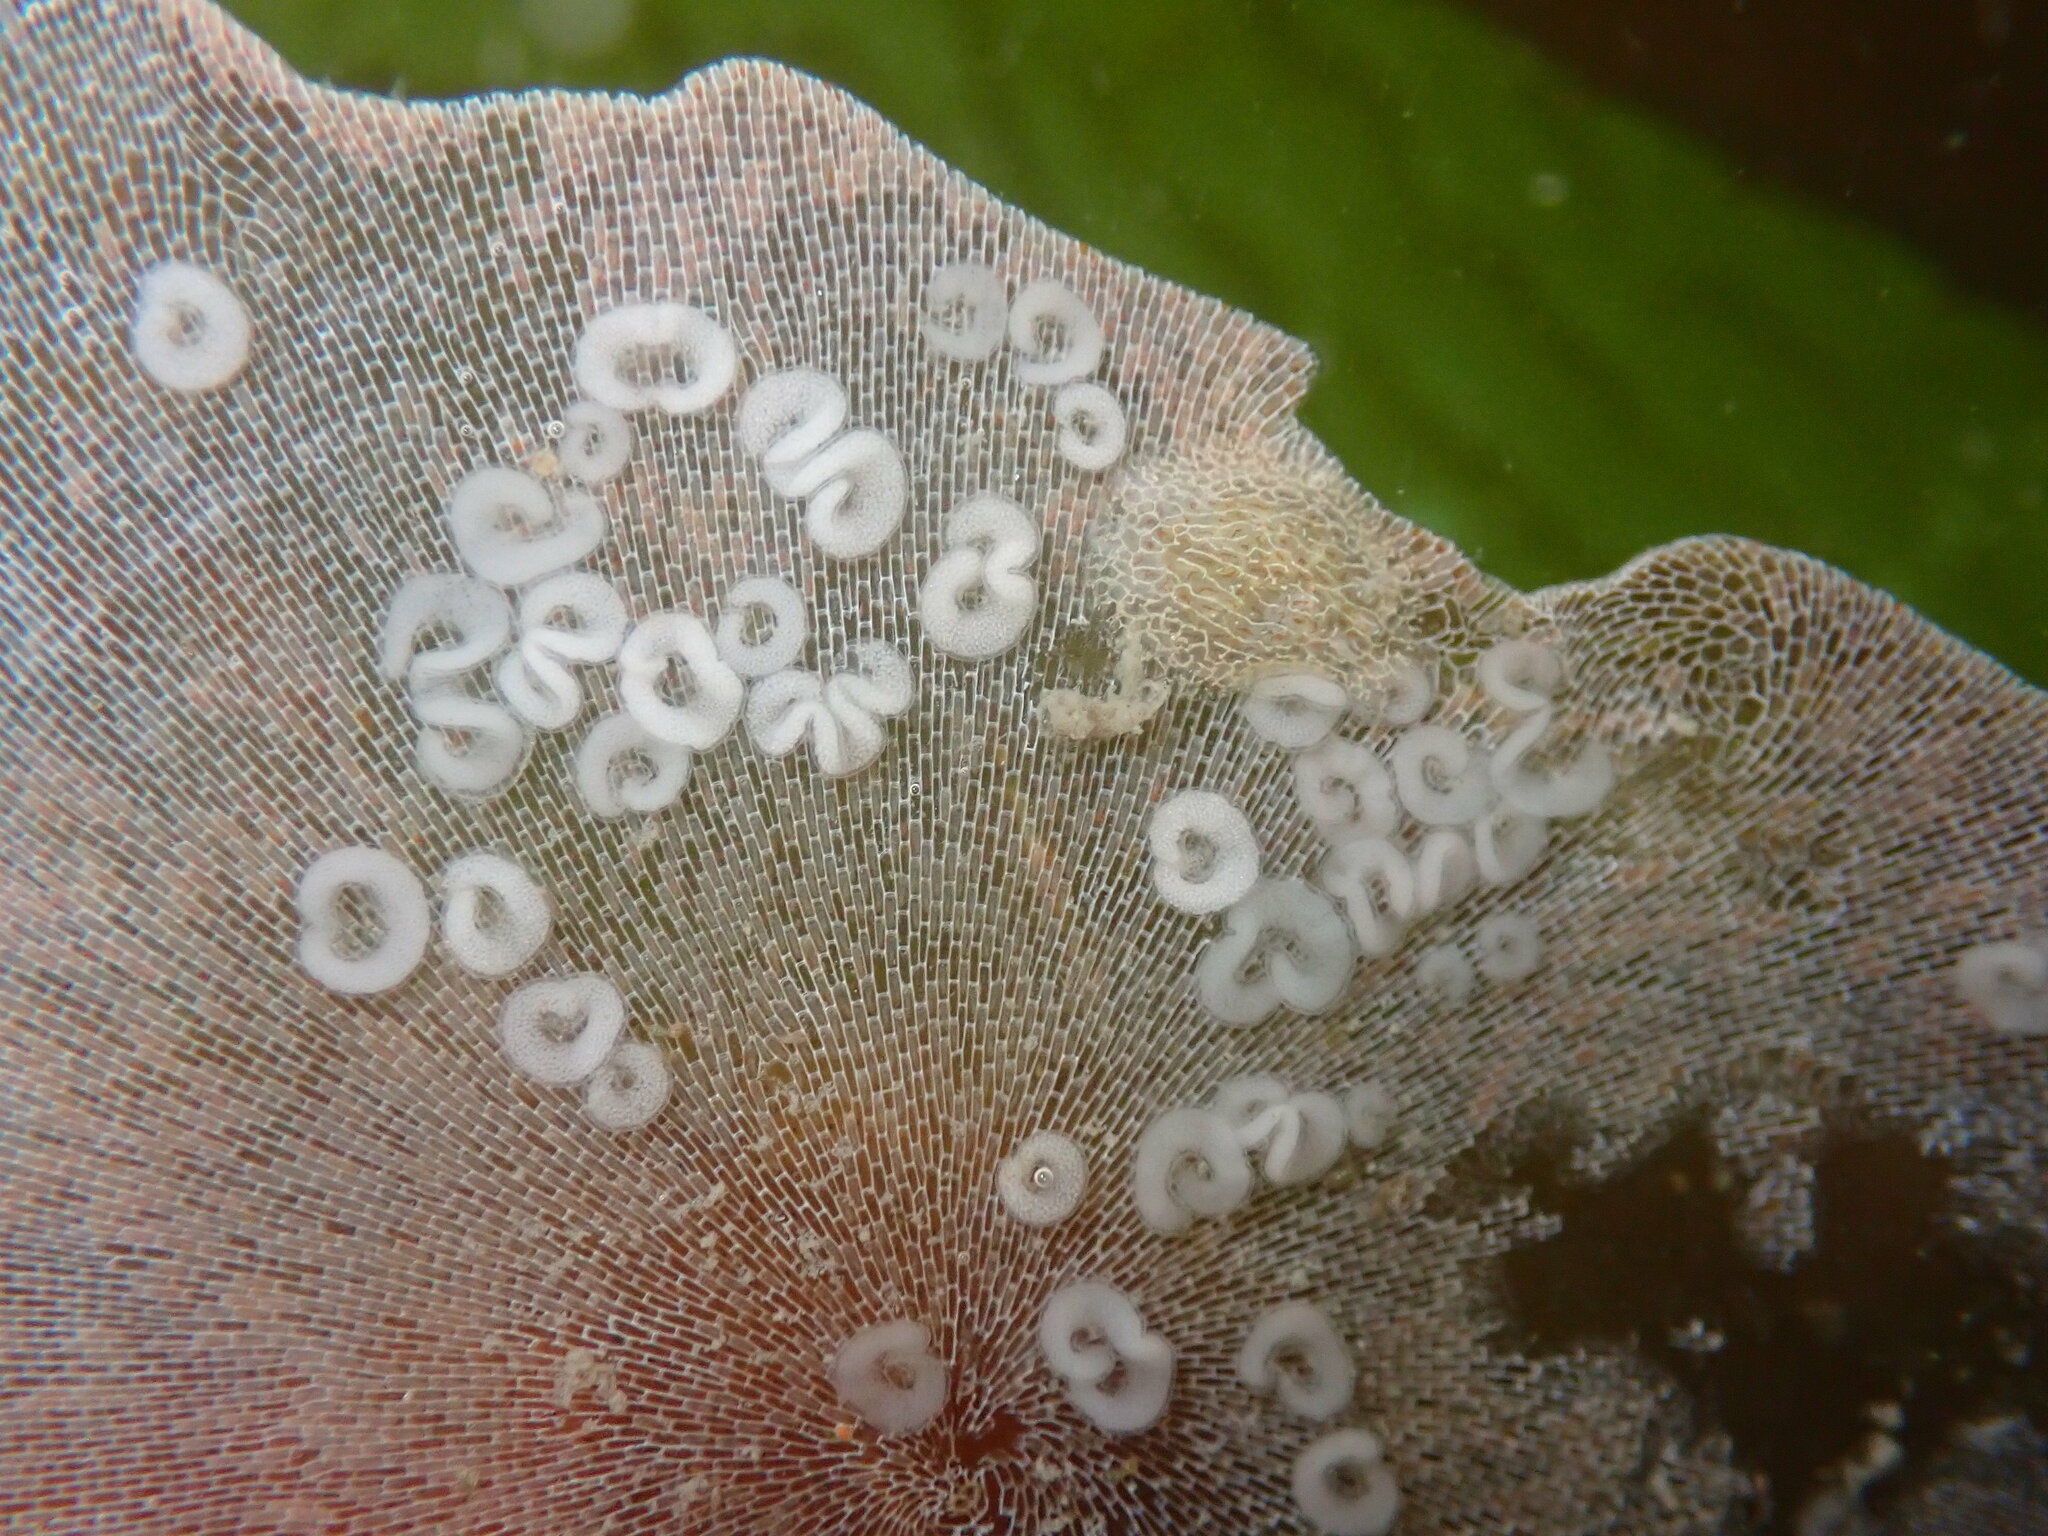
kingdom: Animalia
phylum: Mollusca
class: Gastropoda
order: Nudibranchia
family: Corambidae
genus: Corambe
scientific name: Corambe steinbergae
